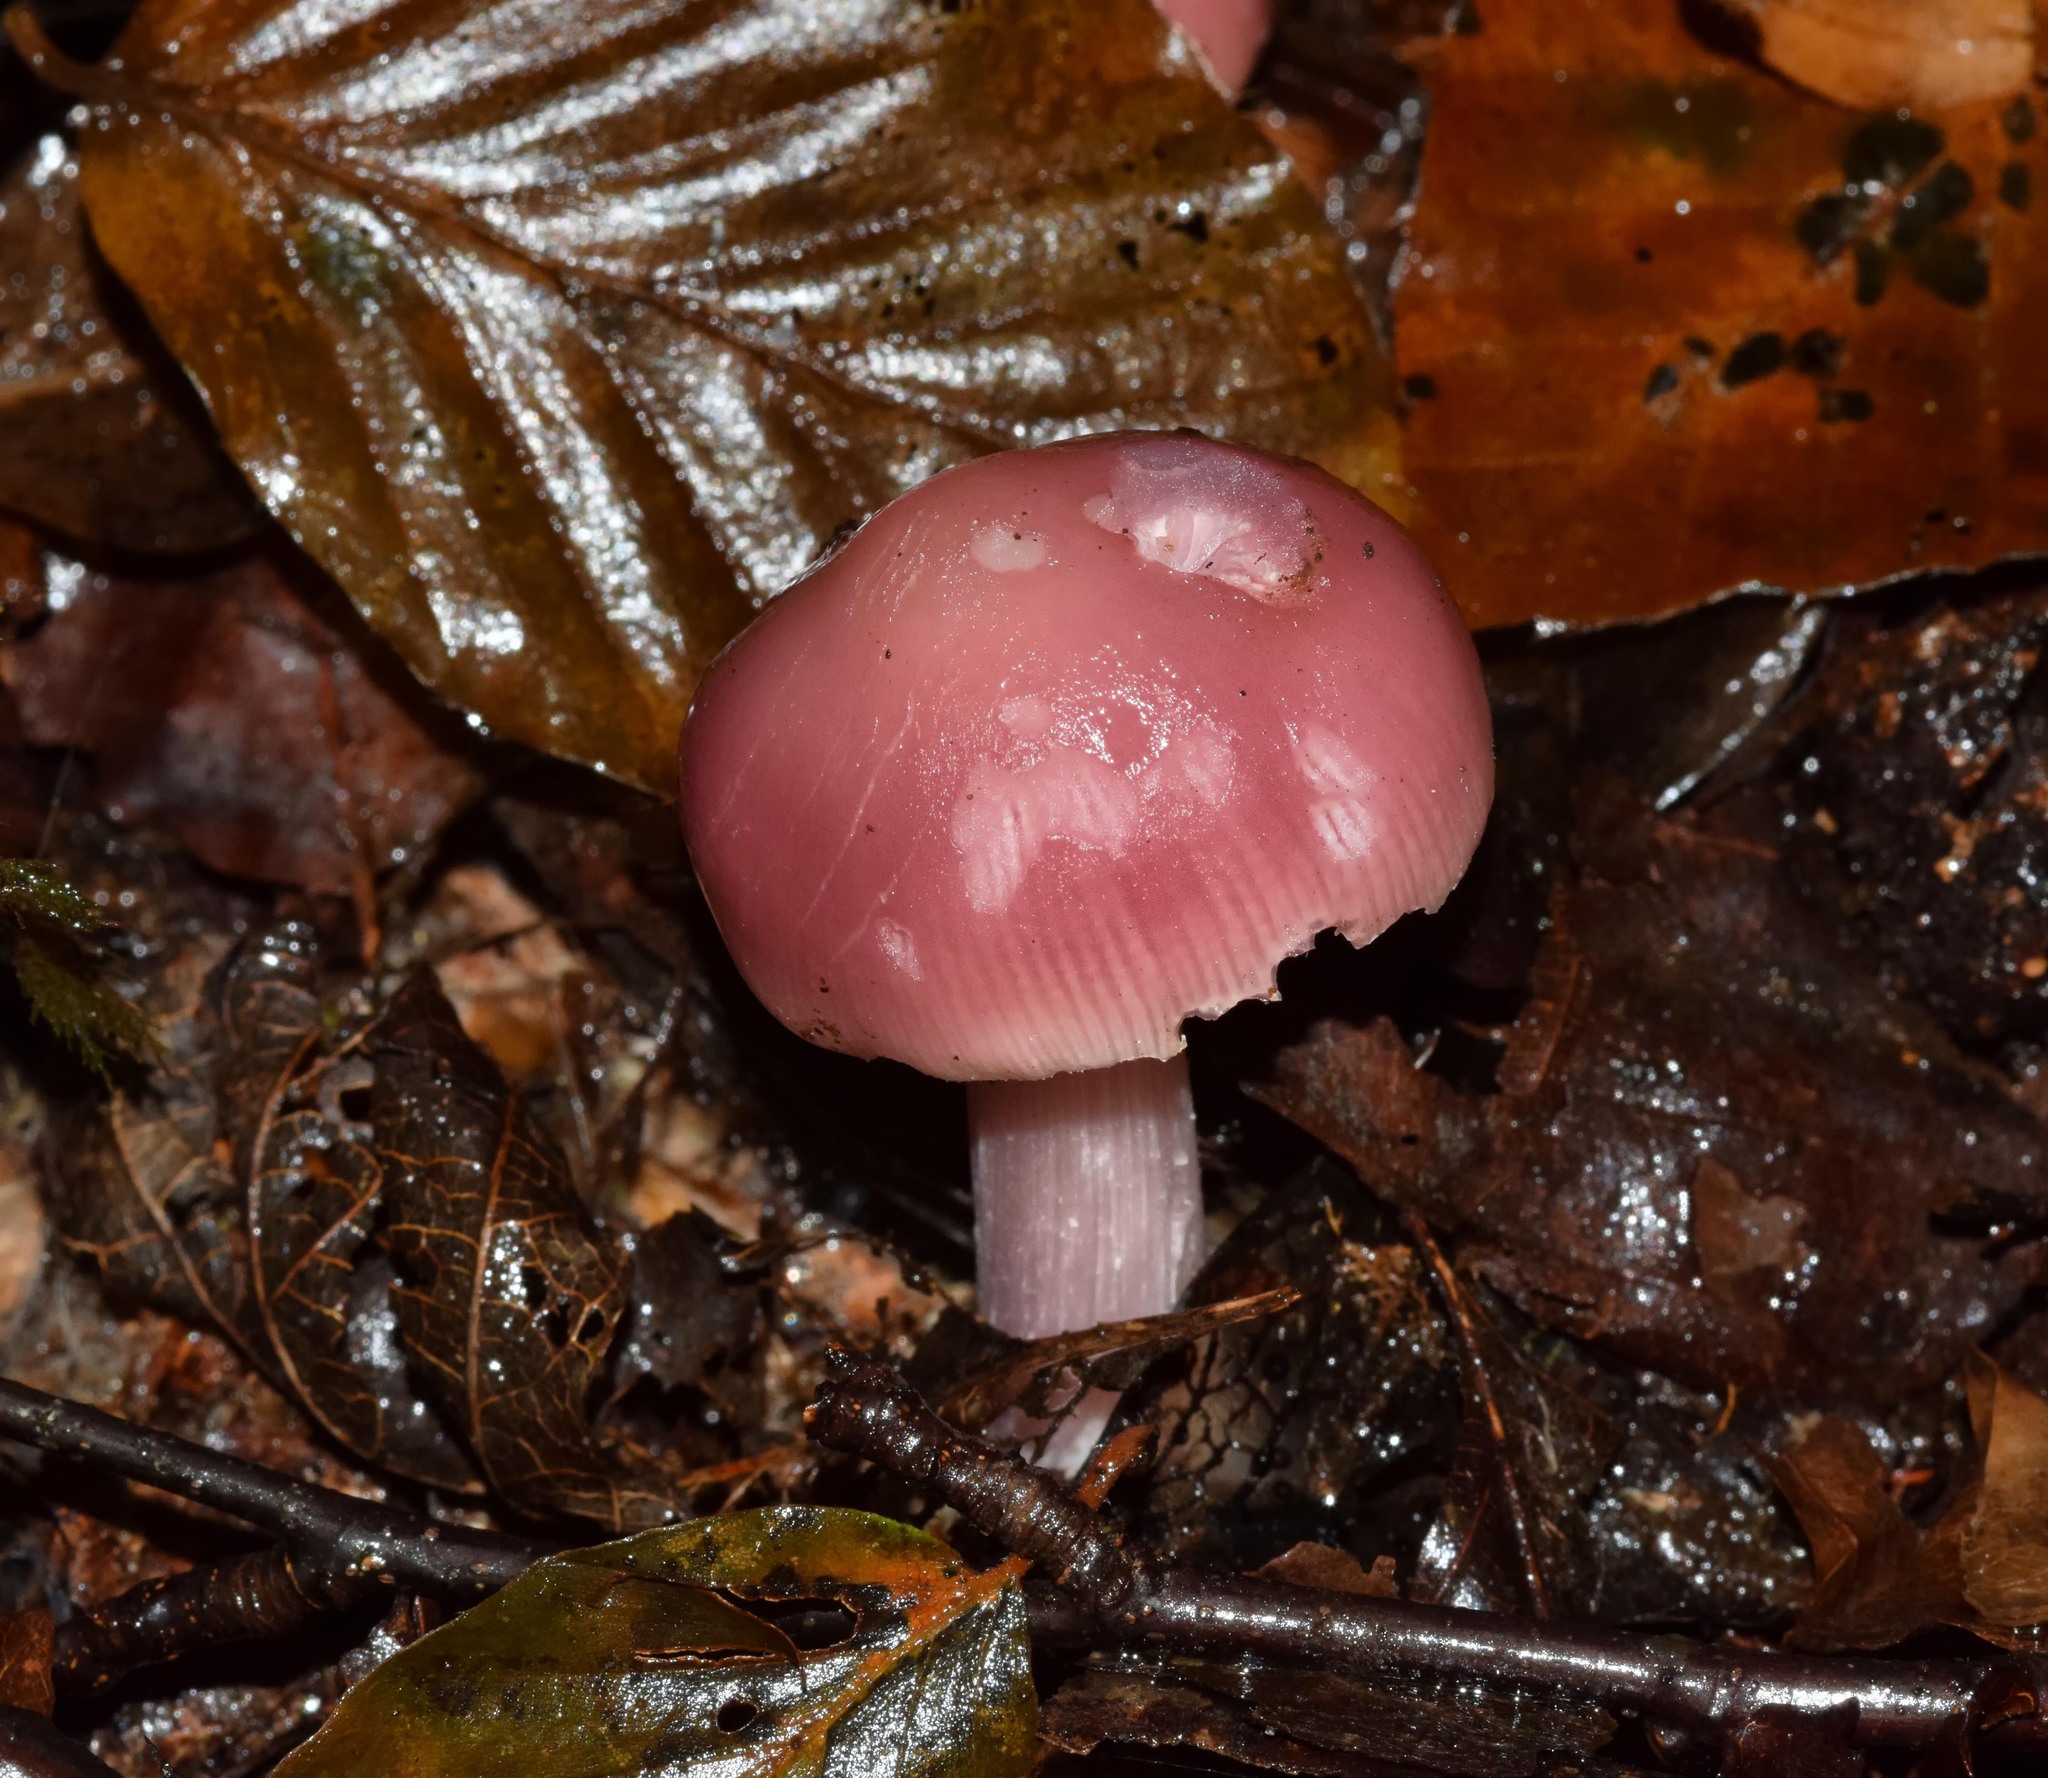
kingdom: Fungi
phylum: Basidiomycota
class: Agaricomycetes
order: Agaricales
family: Mycenaceae
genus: Mycena
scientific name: Mycena rosea
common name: Rosy bonnet
